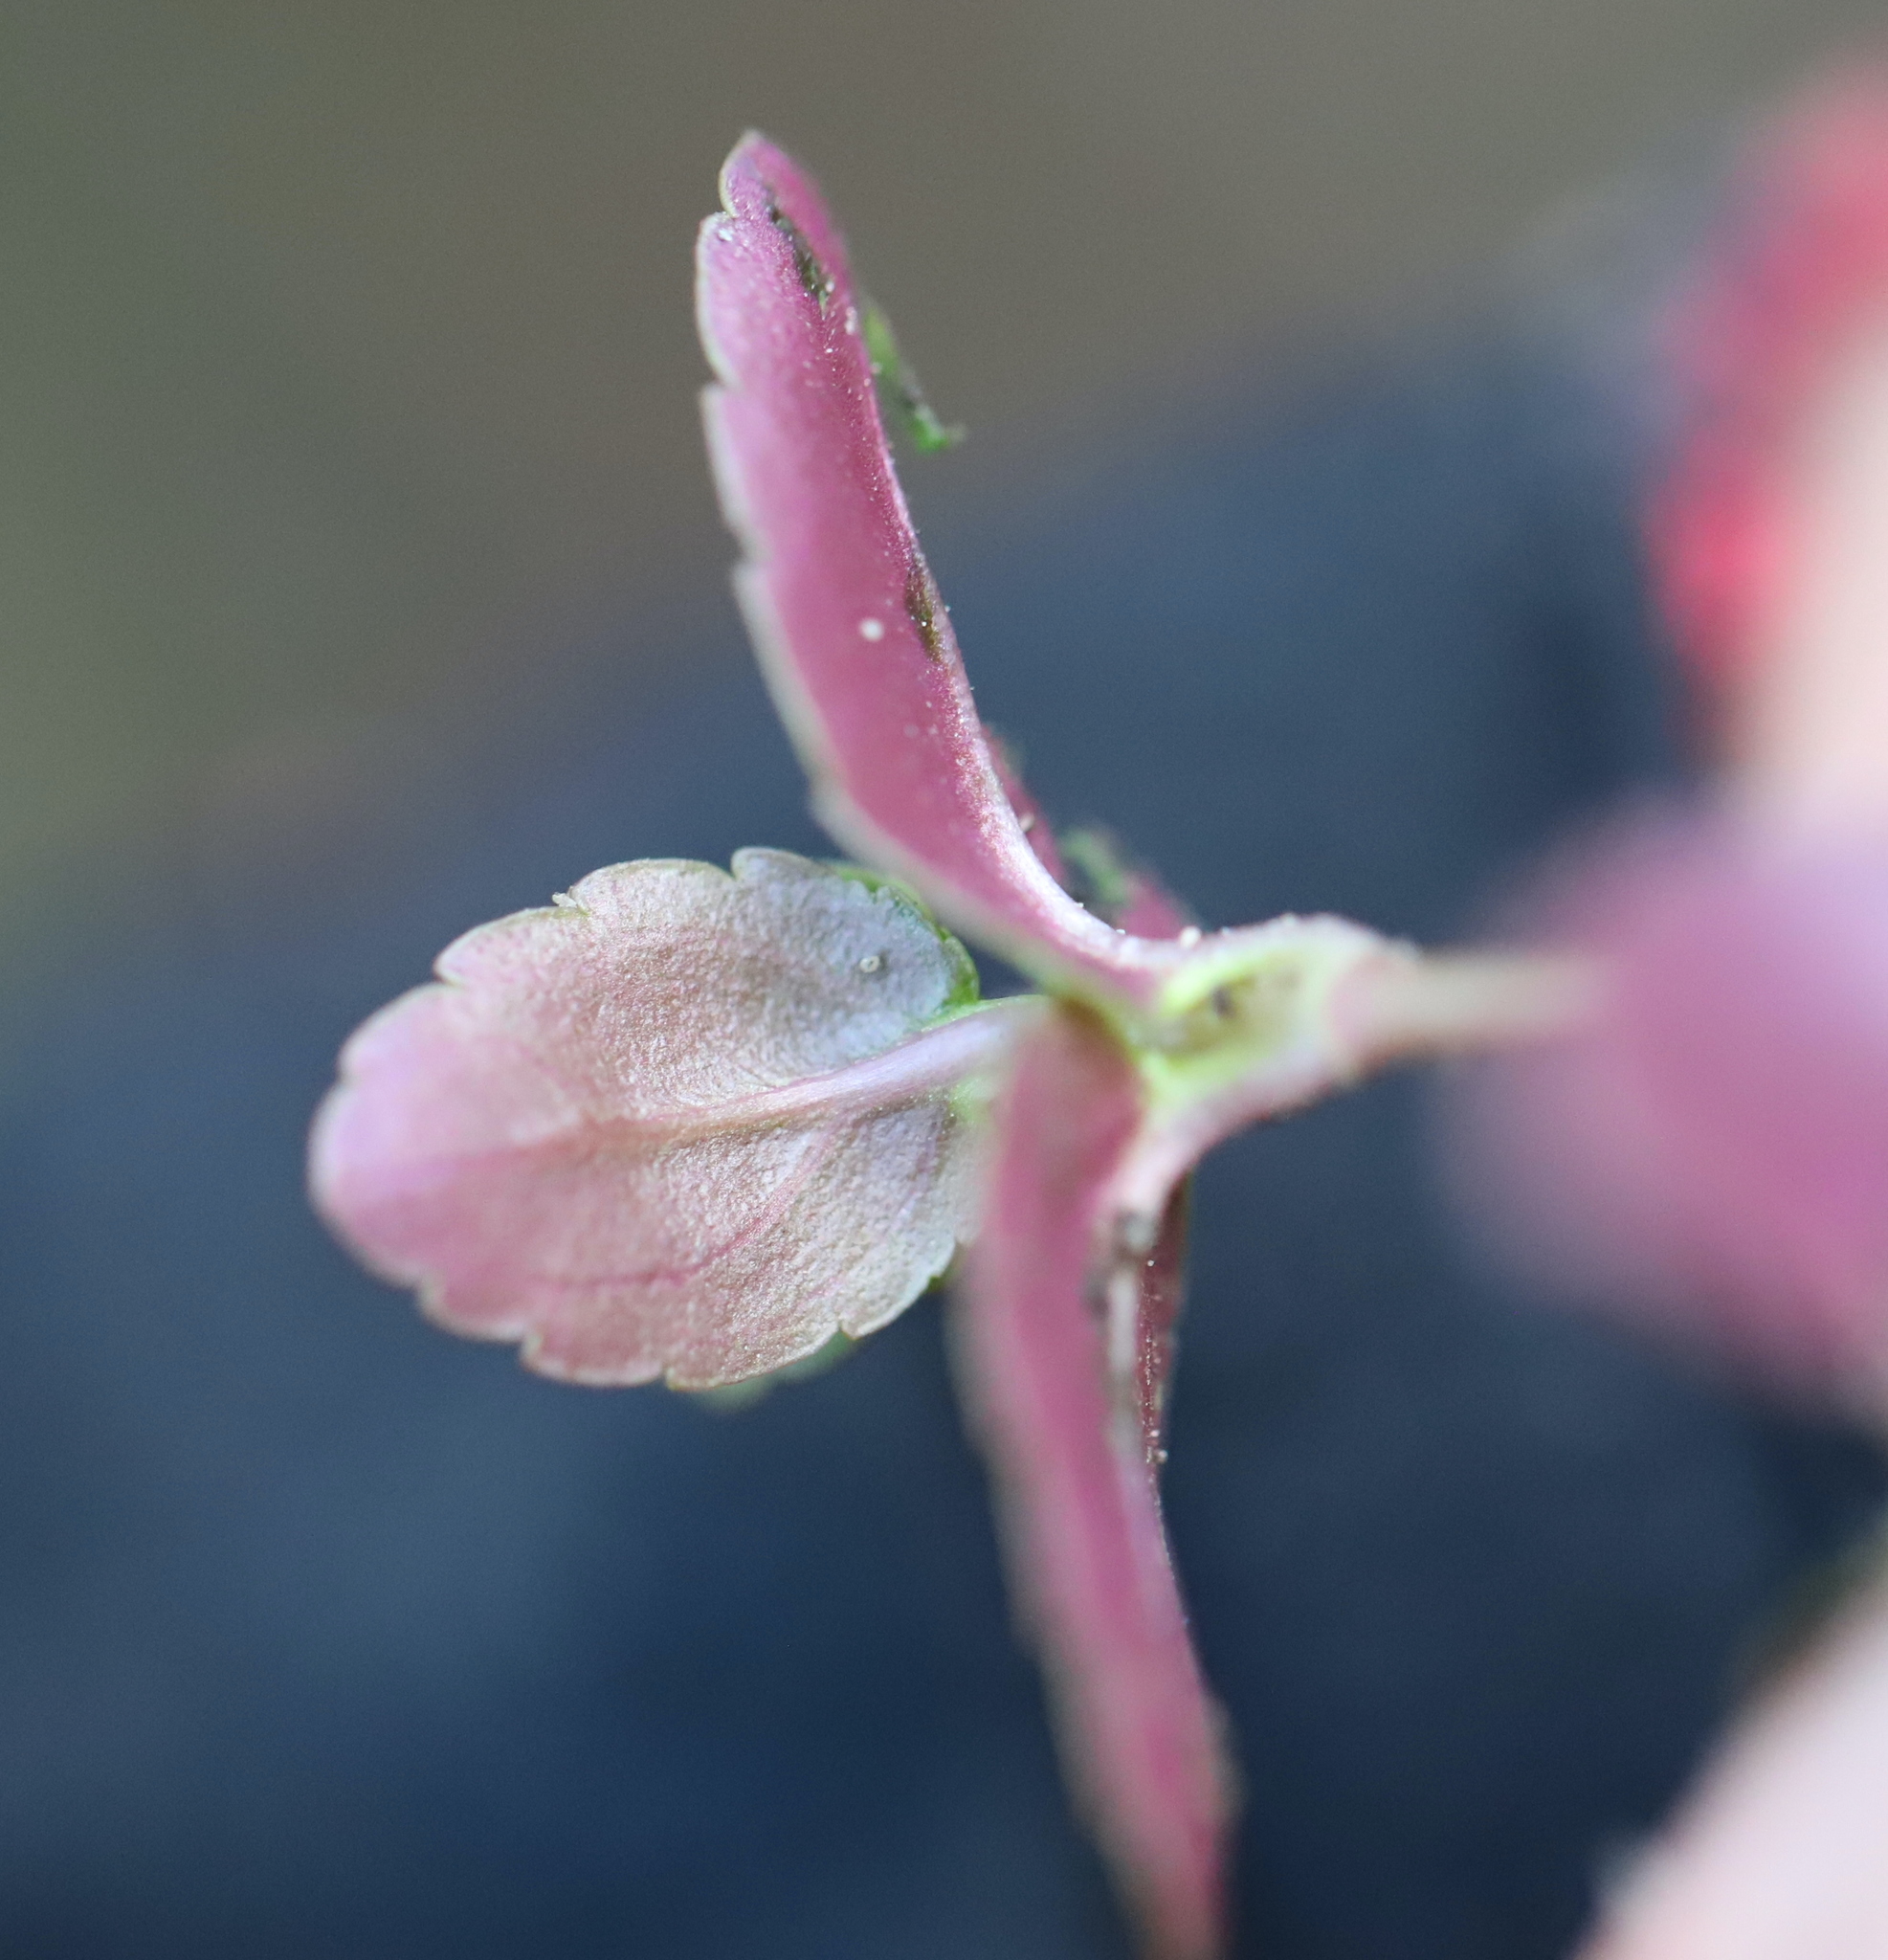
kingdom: Plantae
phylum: Tracheophyta
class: Magnoliopsida
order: Lamiales
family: Plantaginaceae
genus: Veronica
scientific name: Veronica americana
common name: American brooklime
